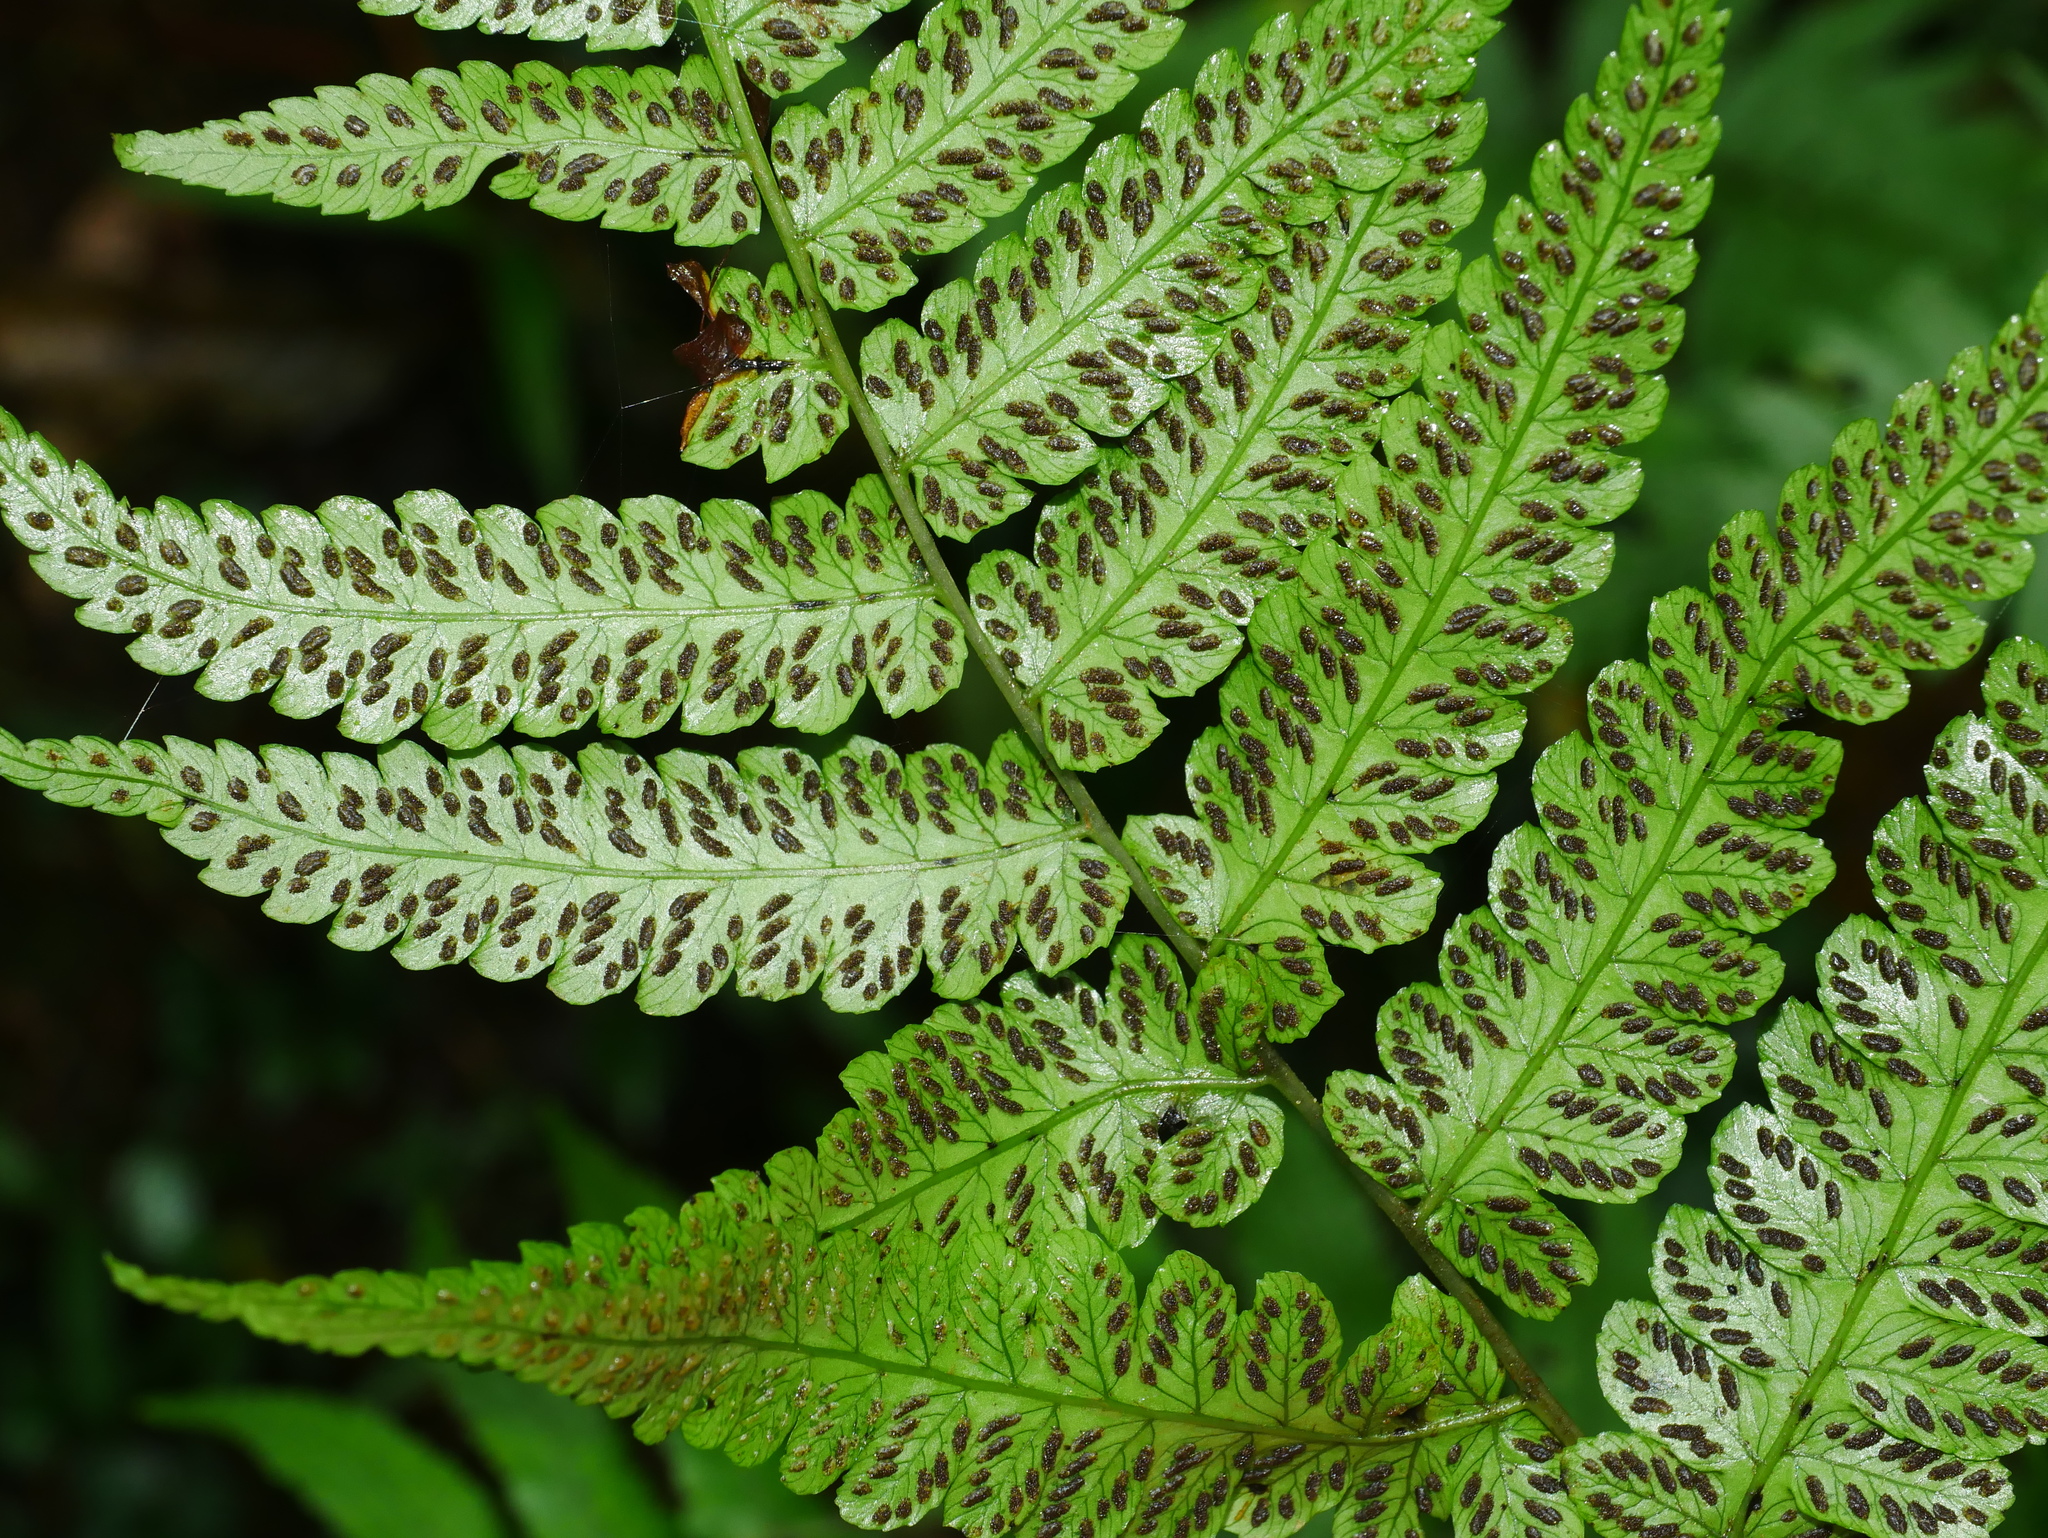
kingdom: Plantae
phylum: Tracheophyta
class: Polypodiopsida
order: Polypodiales
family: Athyriaceae
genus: Diplazium
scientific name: Diplazium virescens
